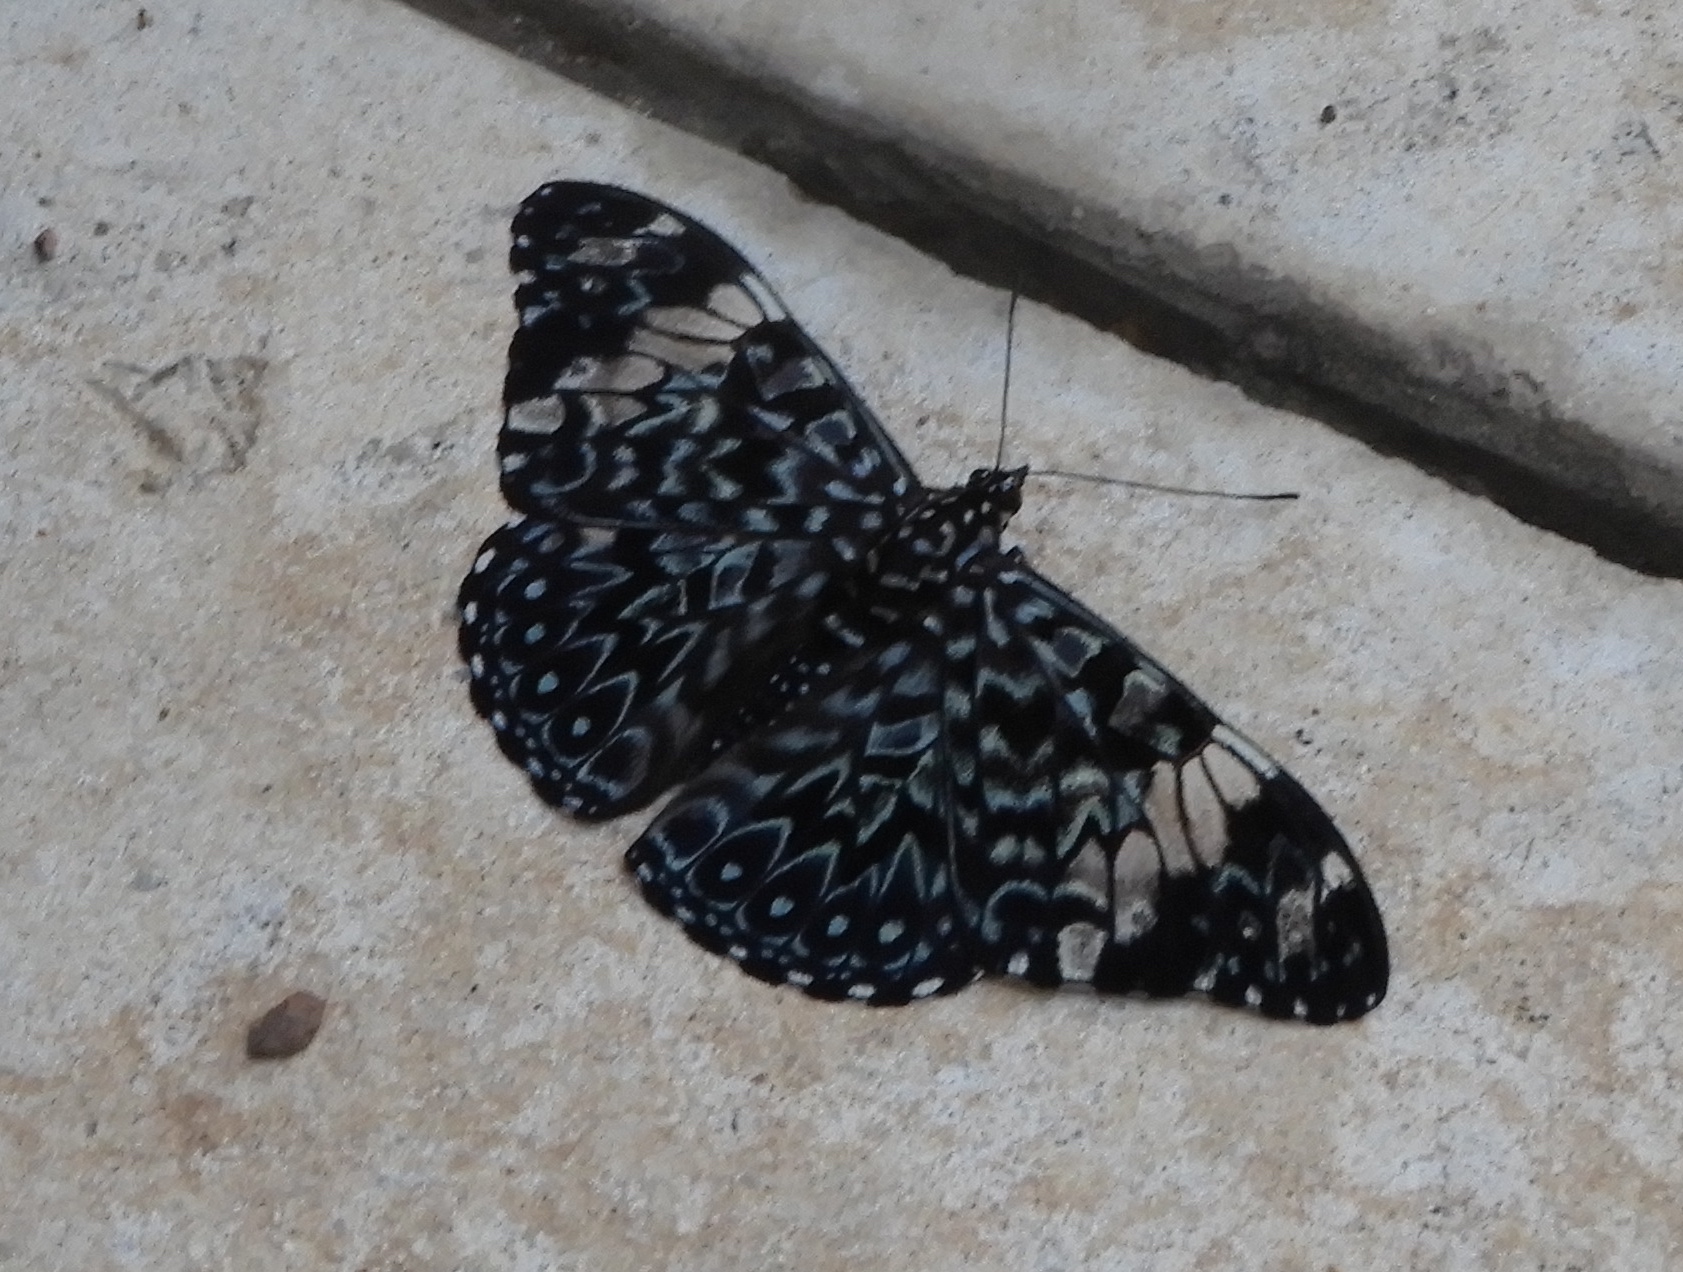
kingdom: Animalia
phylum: Arthropoda
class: Insecta
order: Lepidoptera
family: Nymphalidae
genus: Hamadryas
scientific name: Hamadryas amphinome
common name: Red cracker
